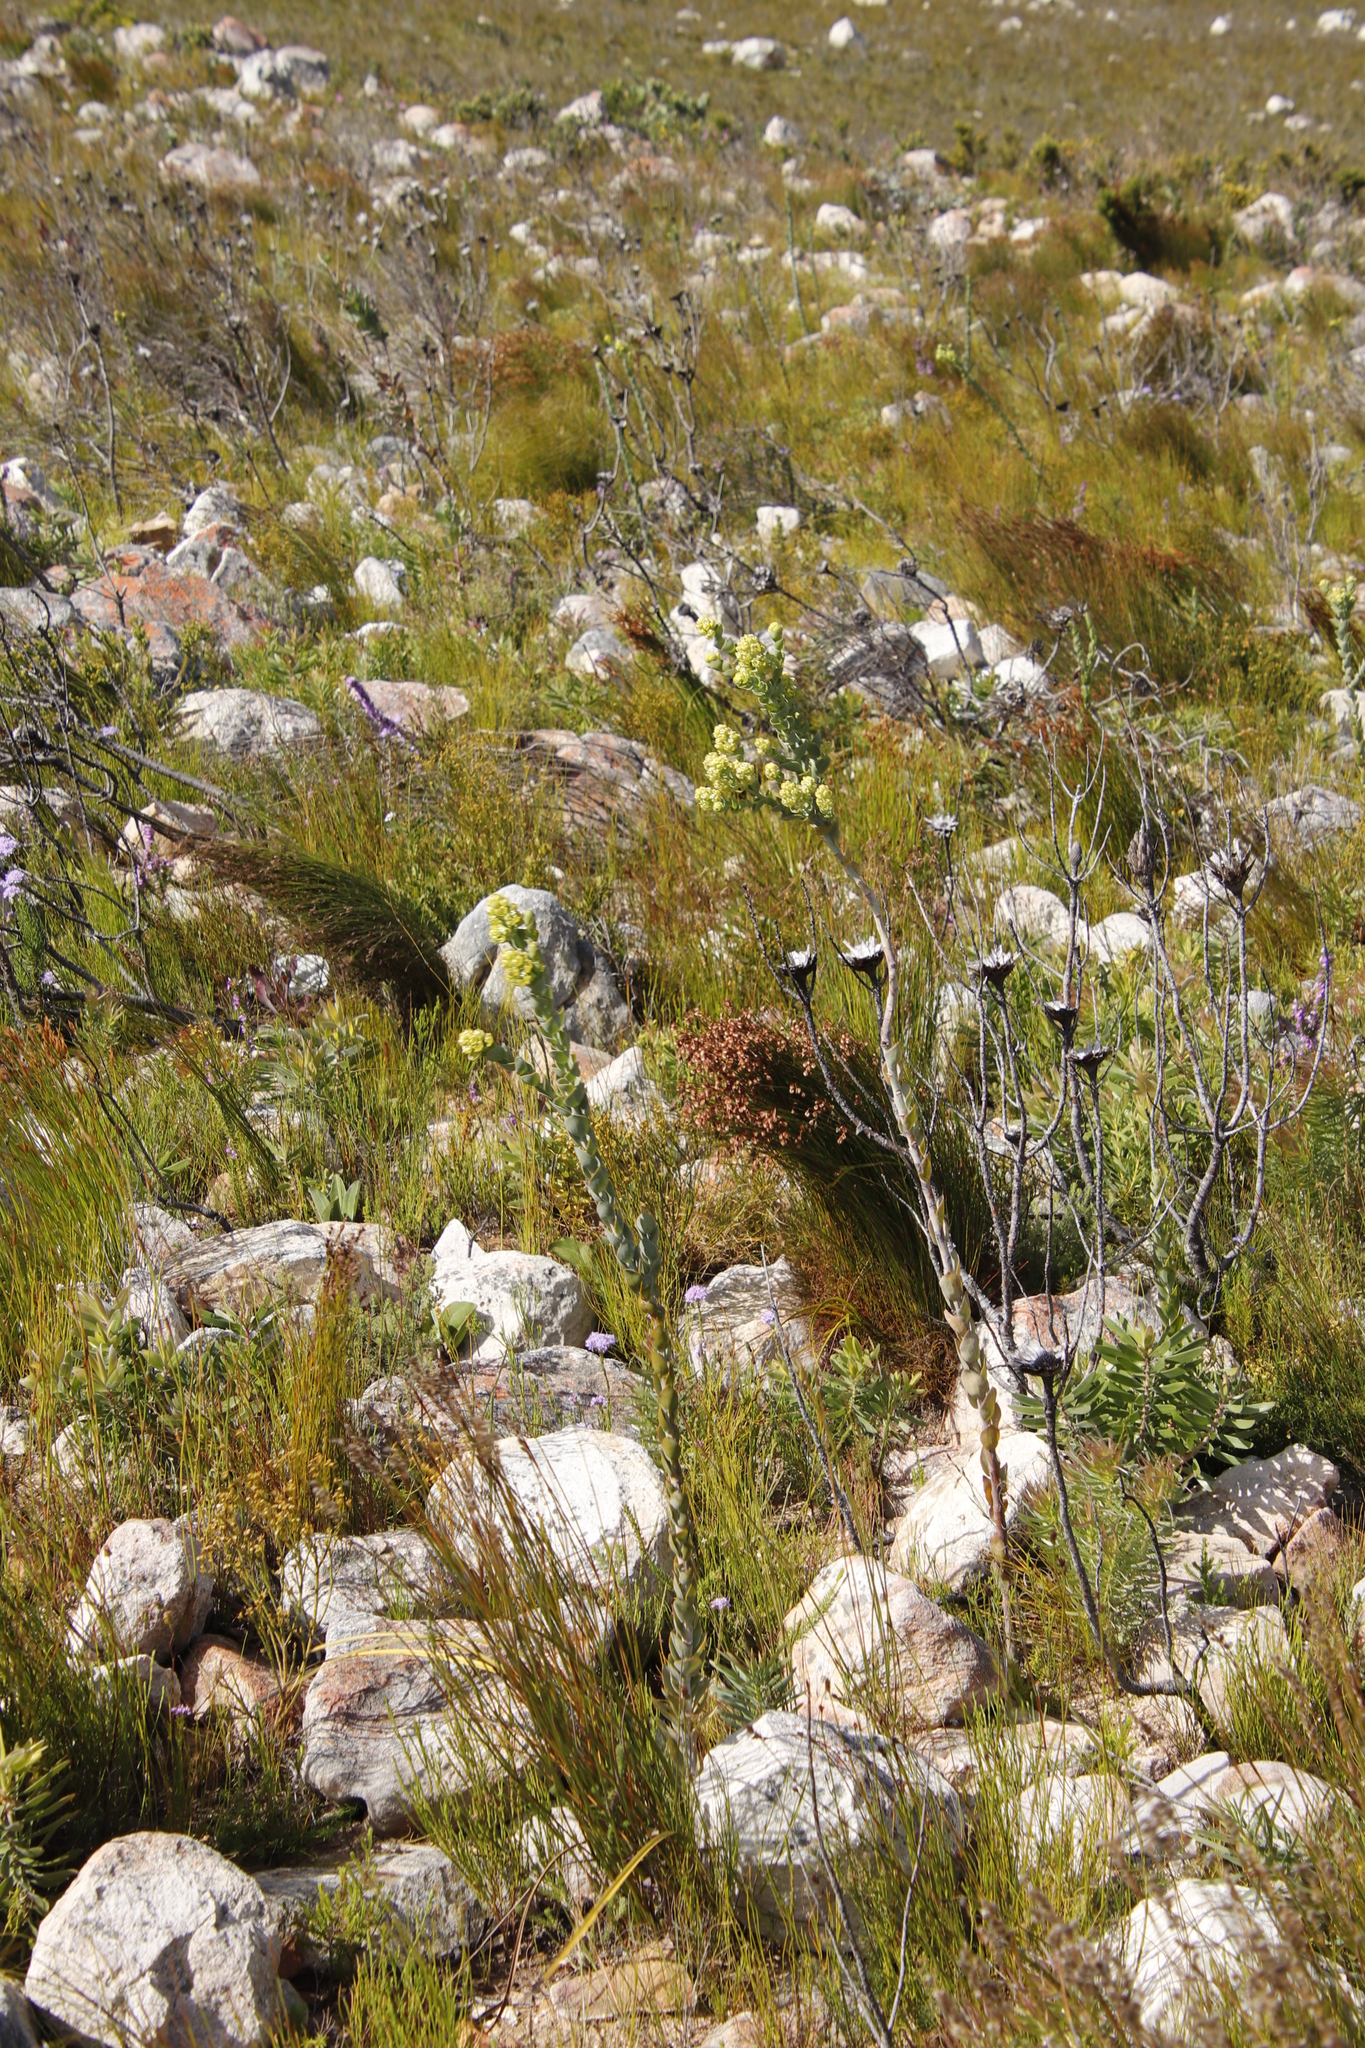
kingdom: Plantae
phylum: Tracheophyta
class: Magnoliopsida
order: Santalales
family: Thesiaceae
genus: Thesium
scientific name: Thesium euphorbioides
